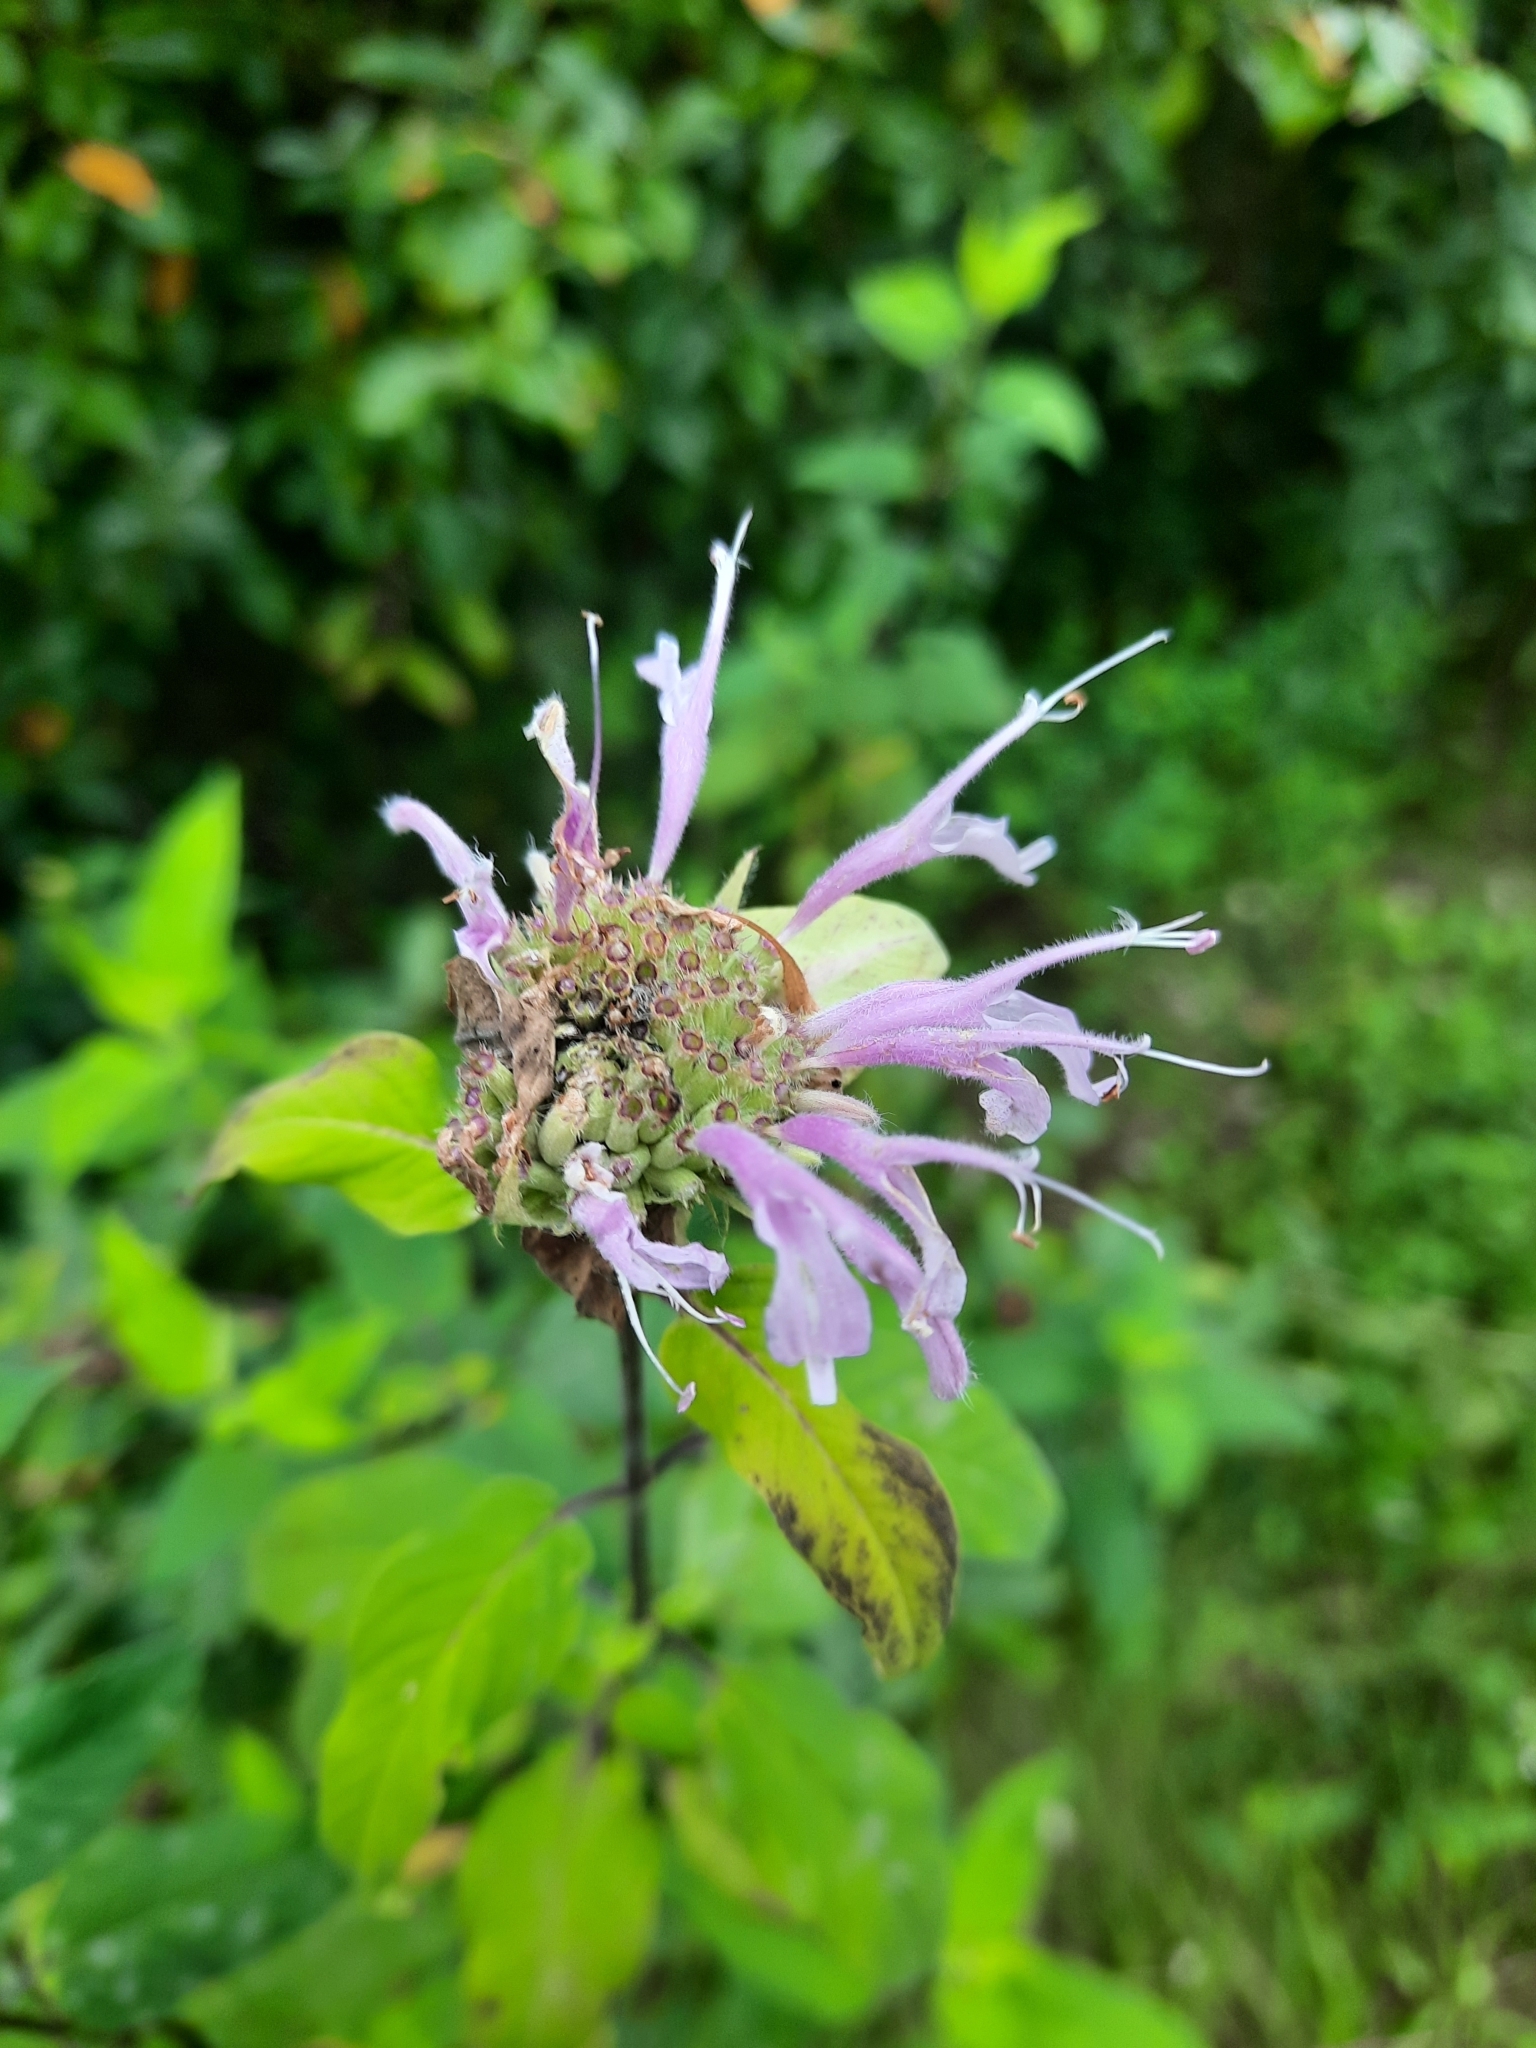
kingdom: Plantae
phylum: Tracheophyta
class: Magnoliopsida
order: Lamiales
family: Lamiaceae
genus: Monarda
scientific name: Monarda fistulosa
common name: Purple beebalm
